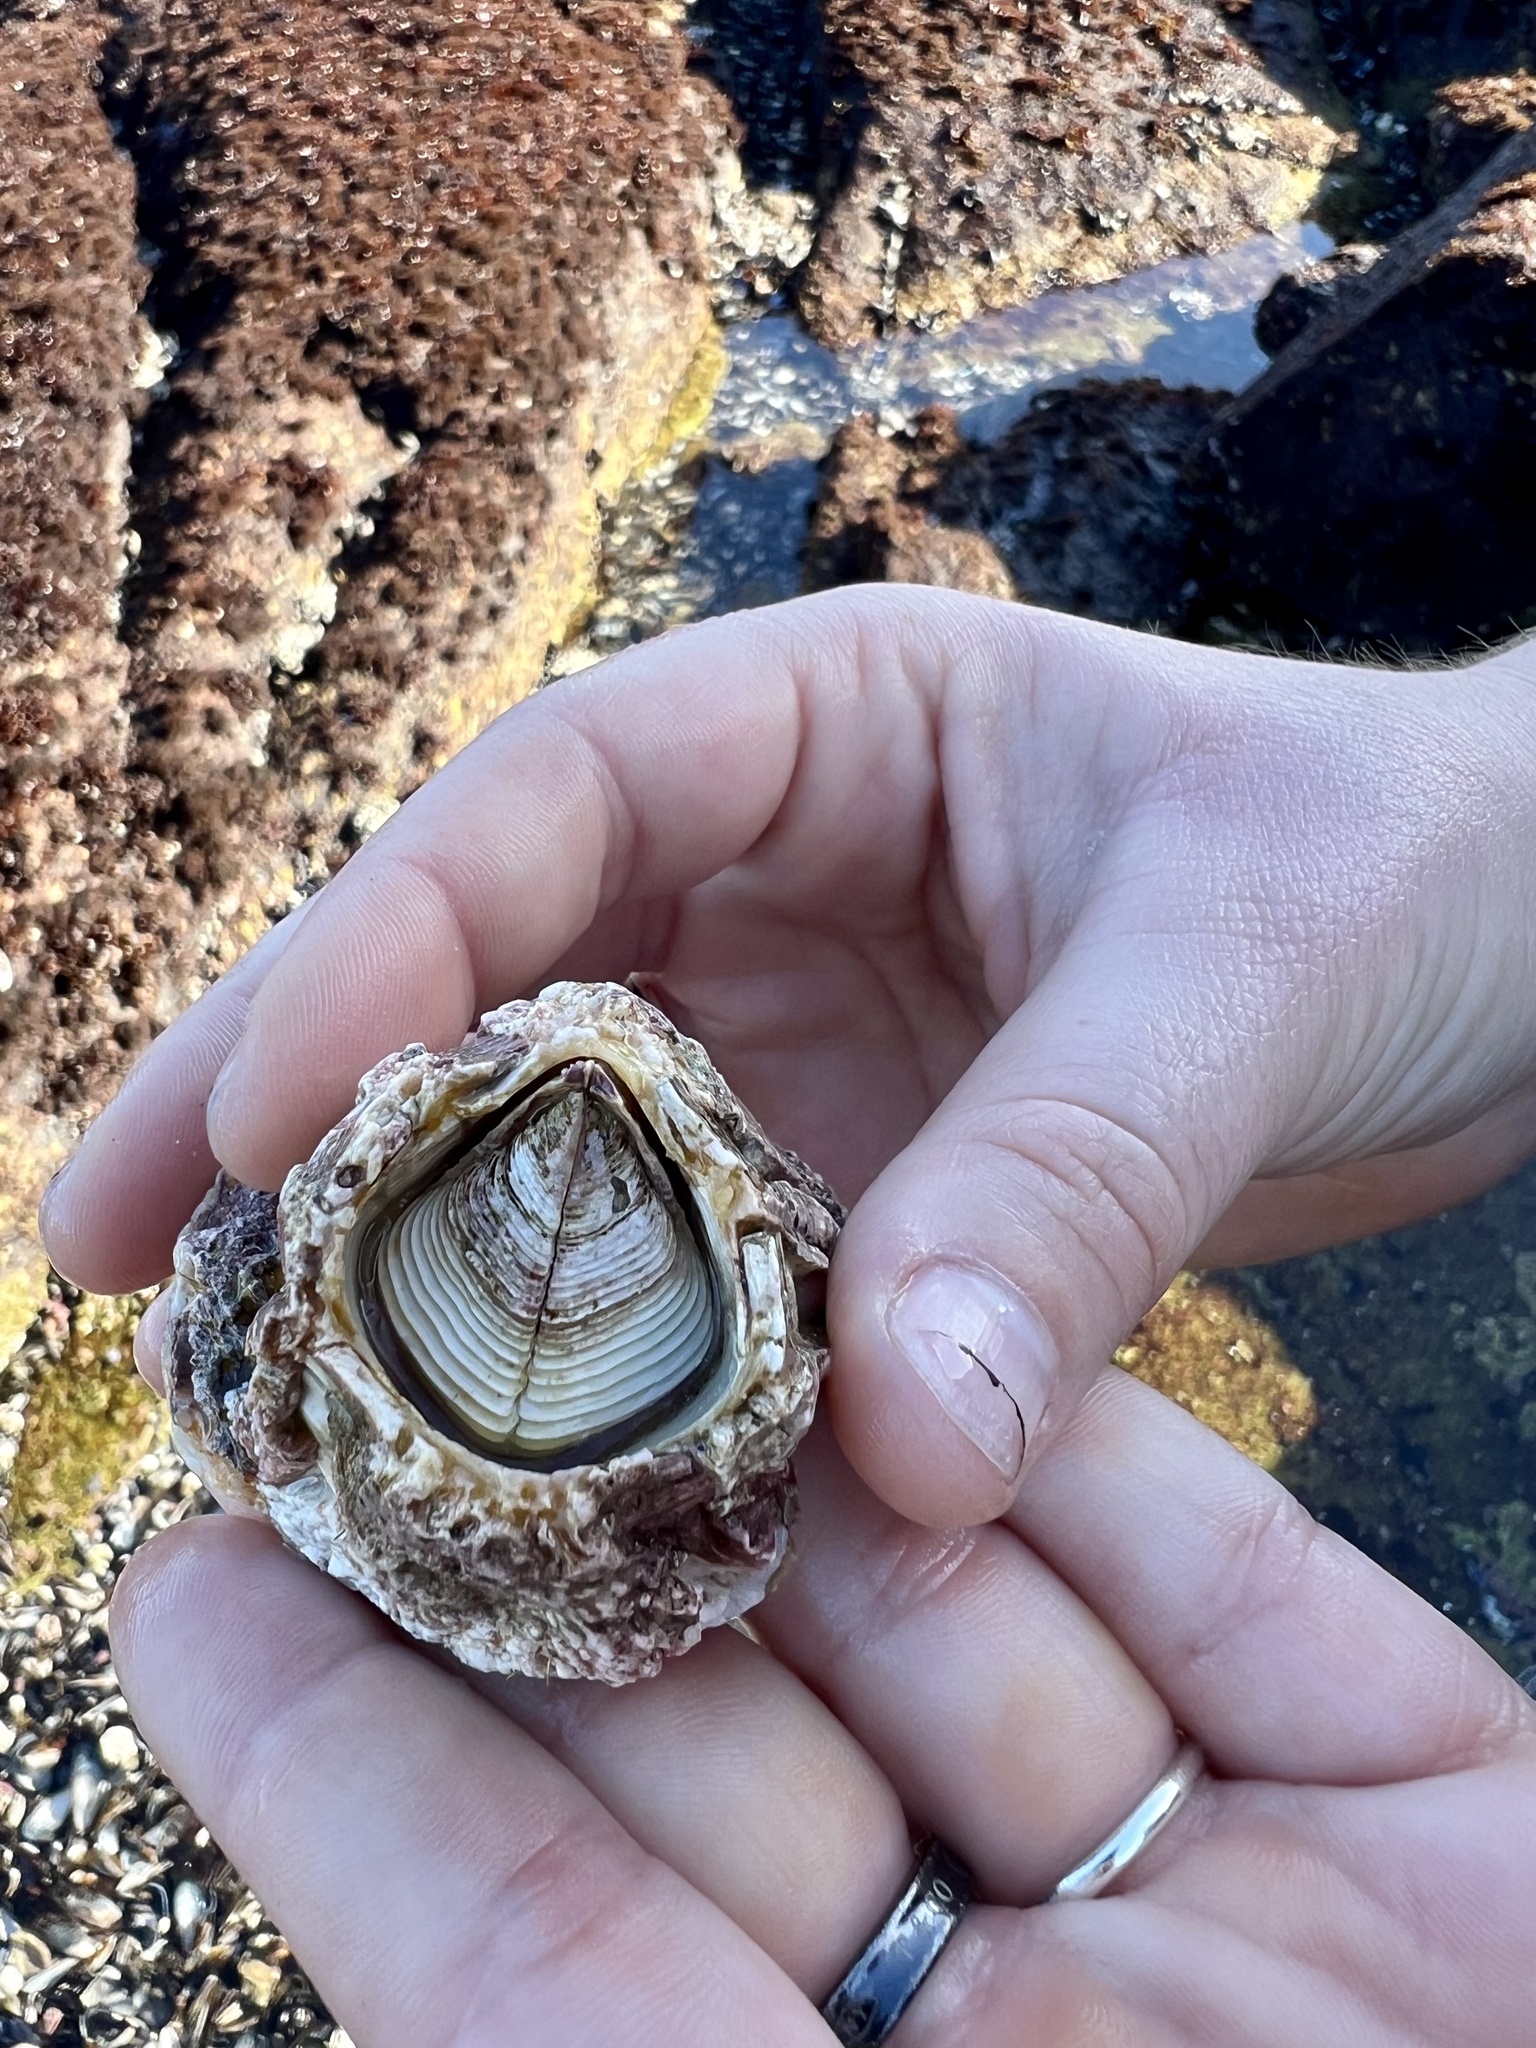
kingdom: Animalia
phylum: Arthropoda
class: Maxillopoda
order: Sessilia
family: Balanidae
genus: Balanus
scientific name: Balanus nubilus
